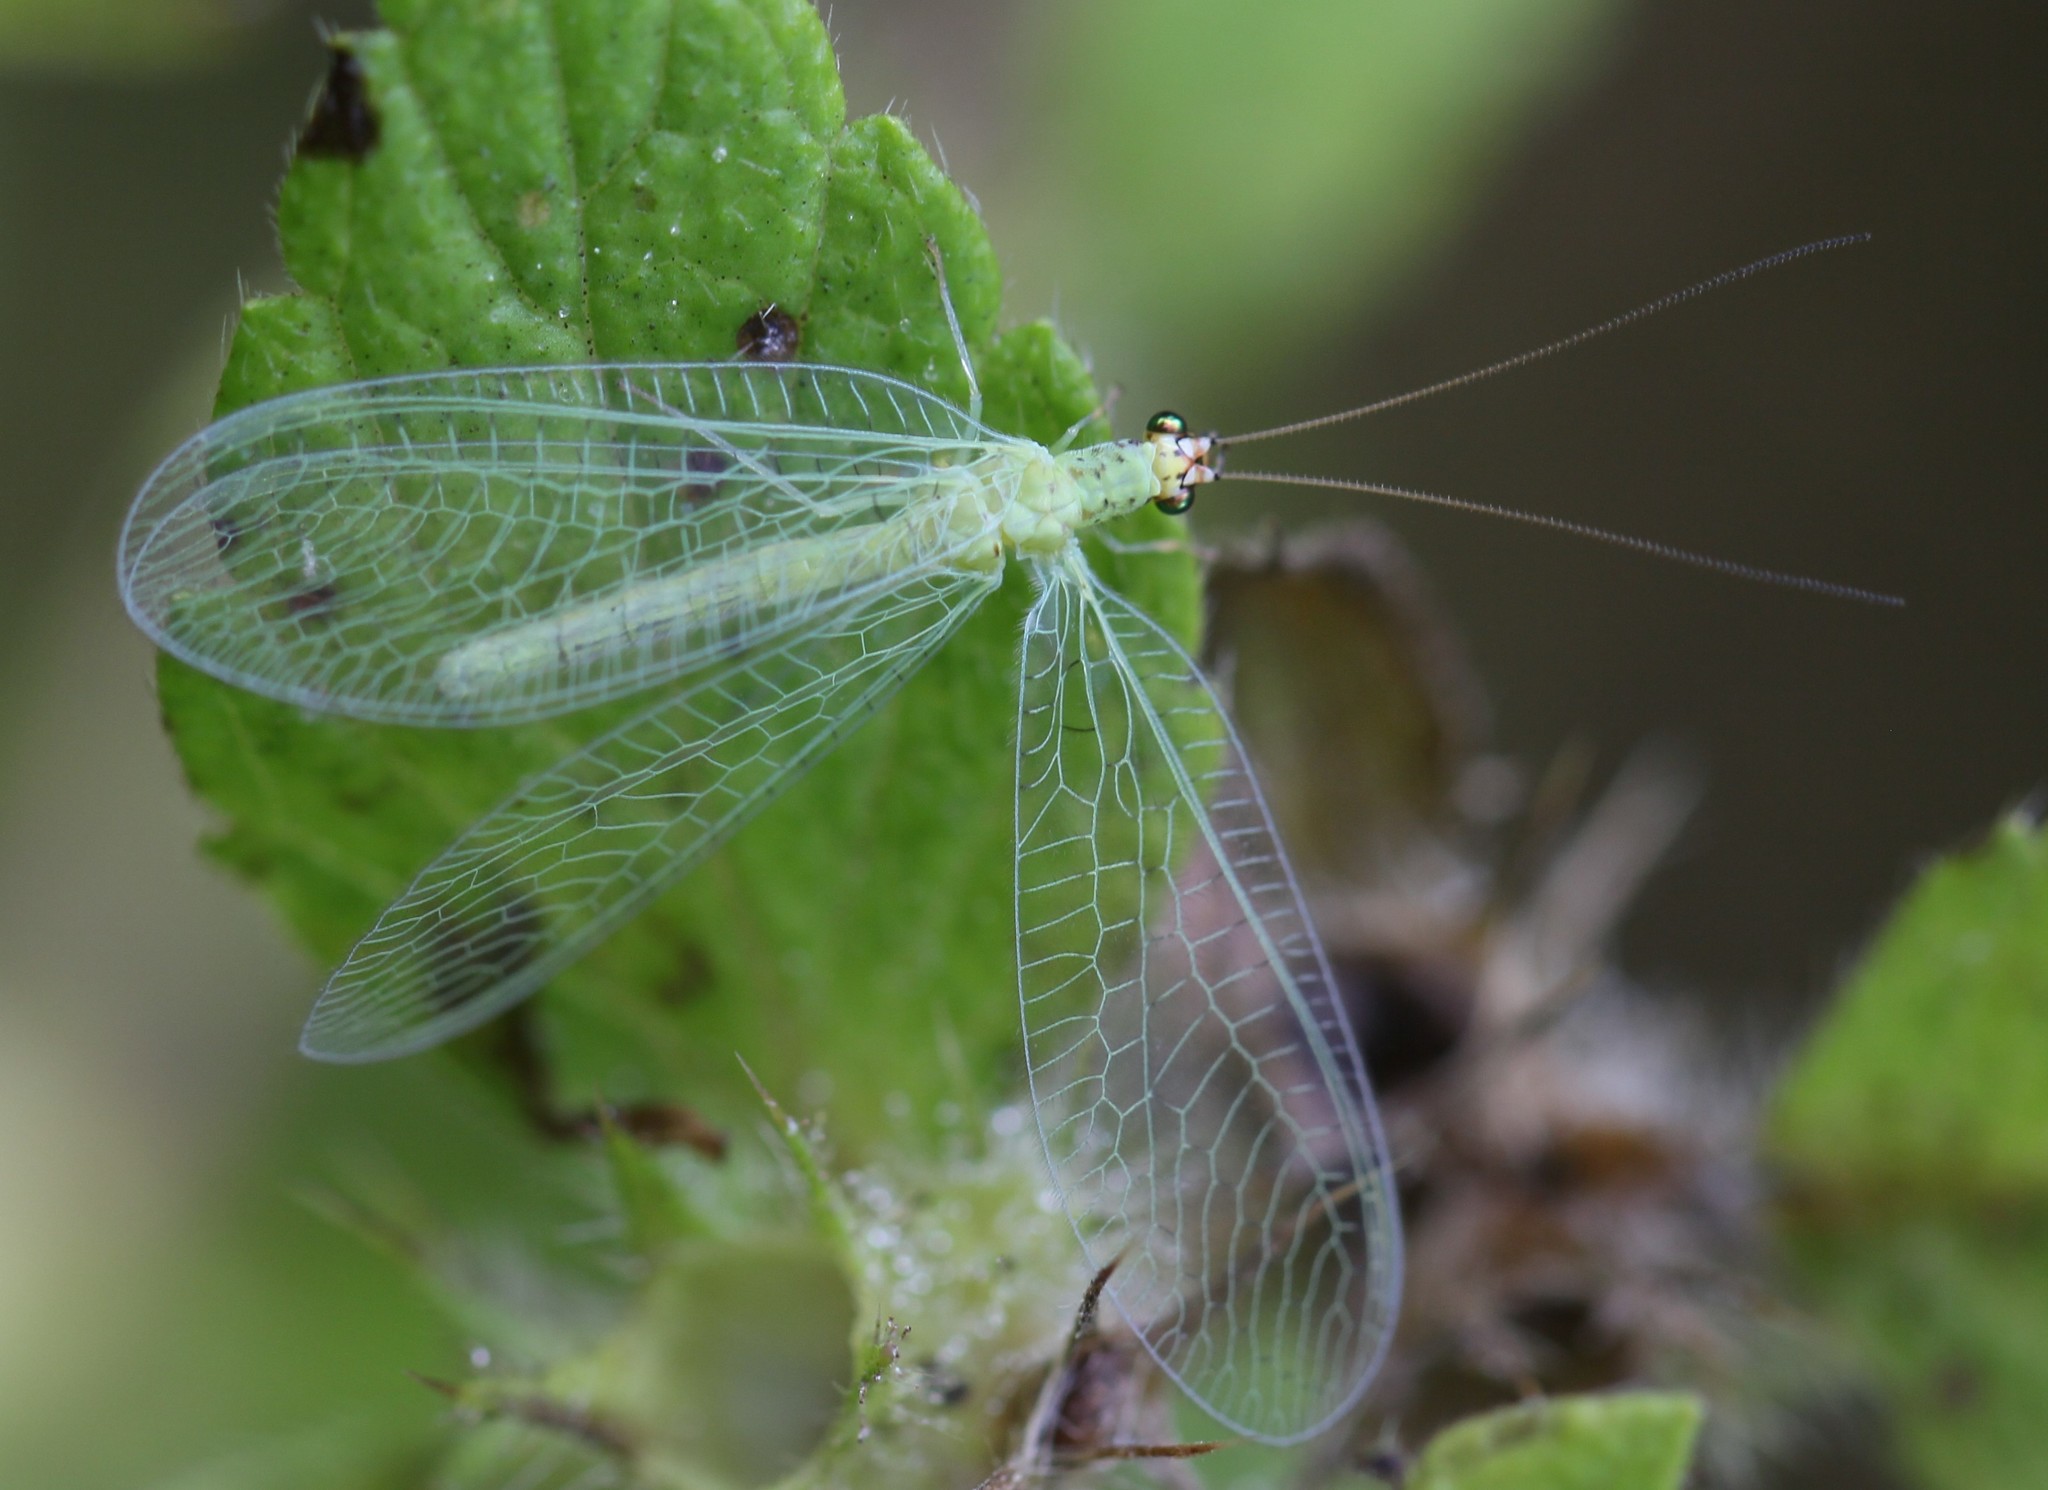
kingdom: Animalia
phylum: Arthropoda
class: Insecta
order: Neuroptera
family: Chrysopidae
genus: Chrysopa
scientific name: Chrysopa oculata
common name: Golden-eyed lacewing
